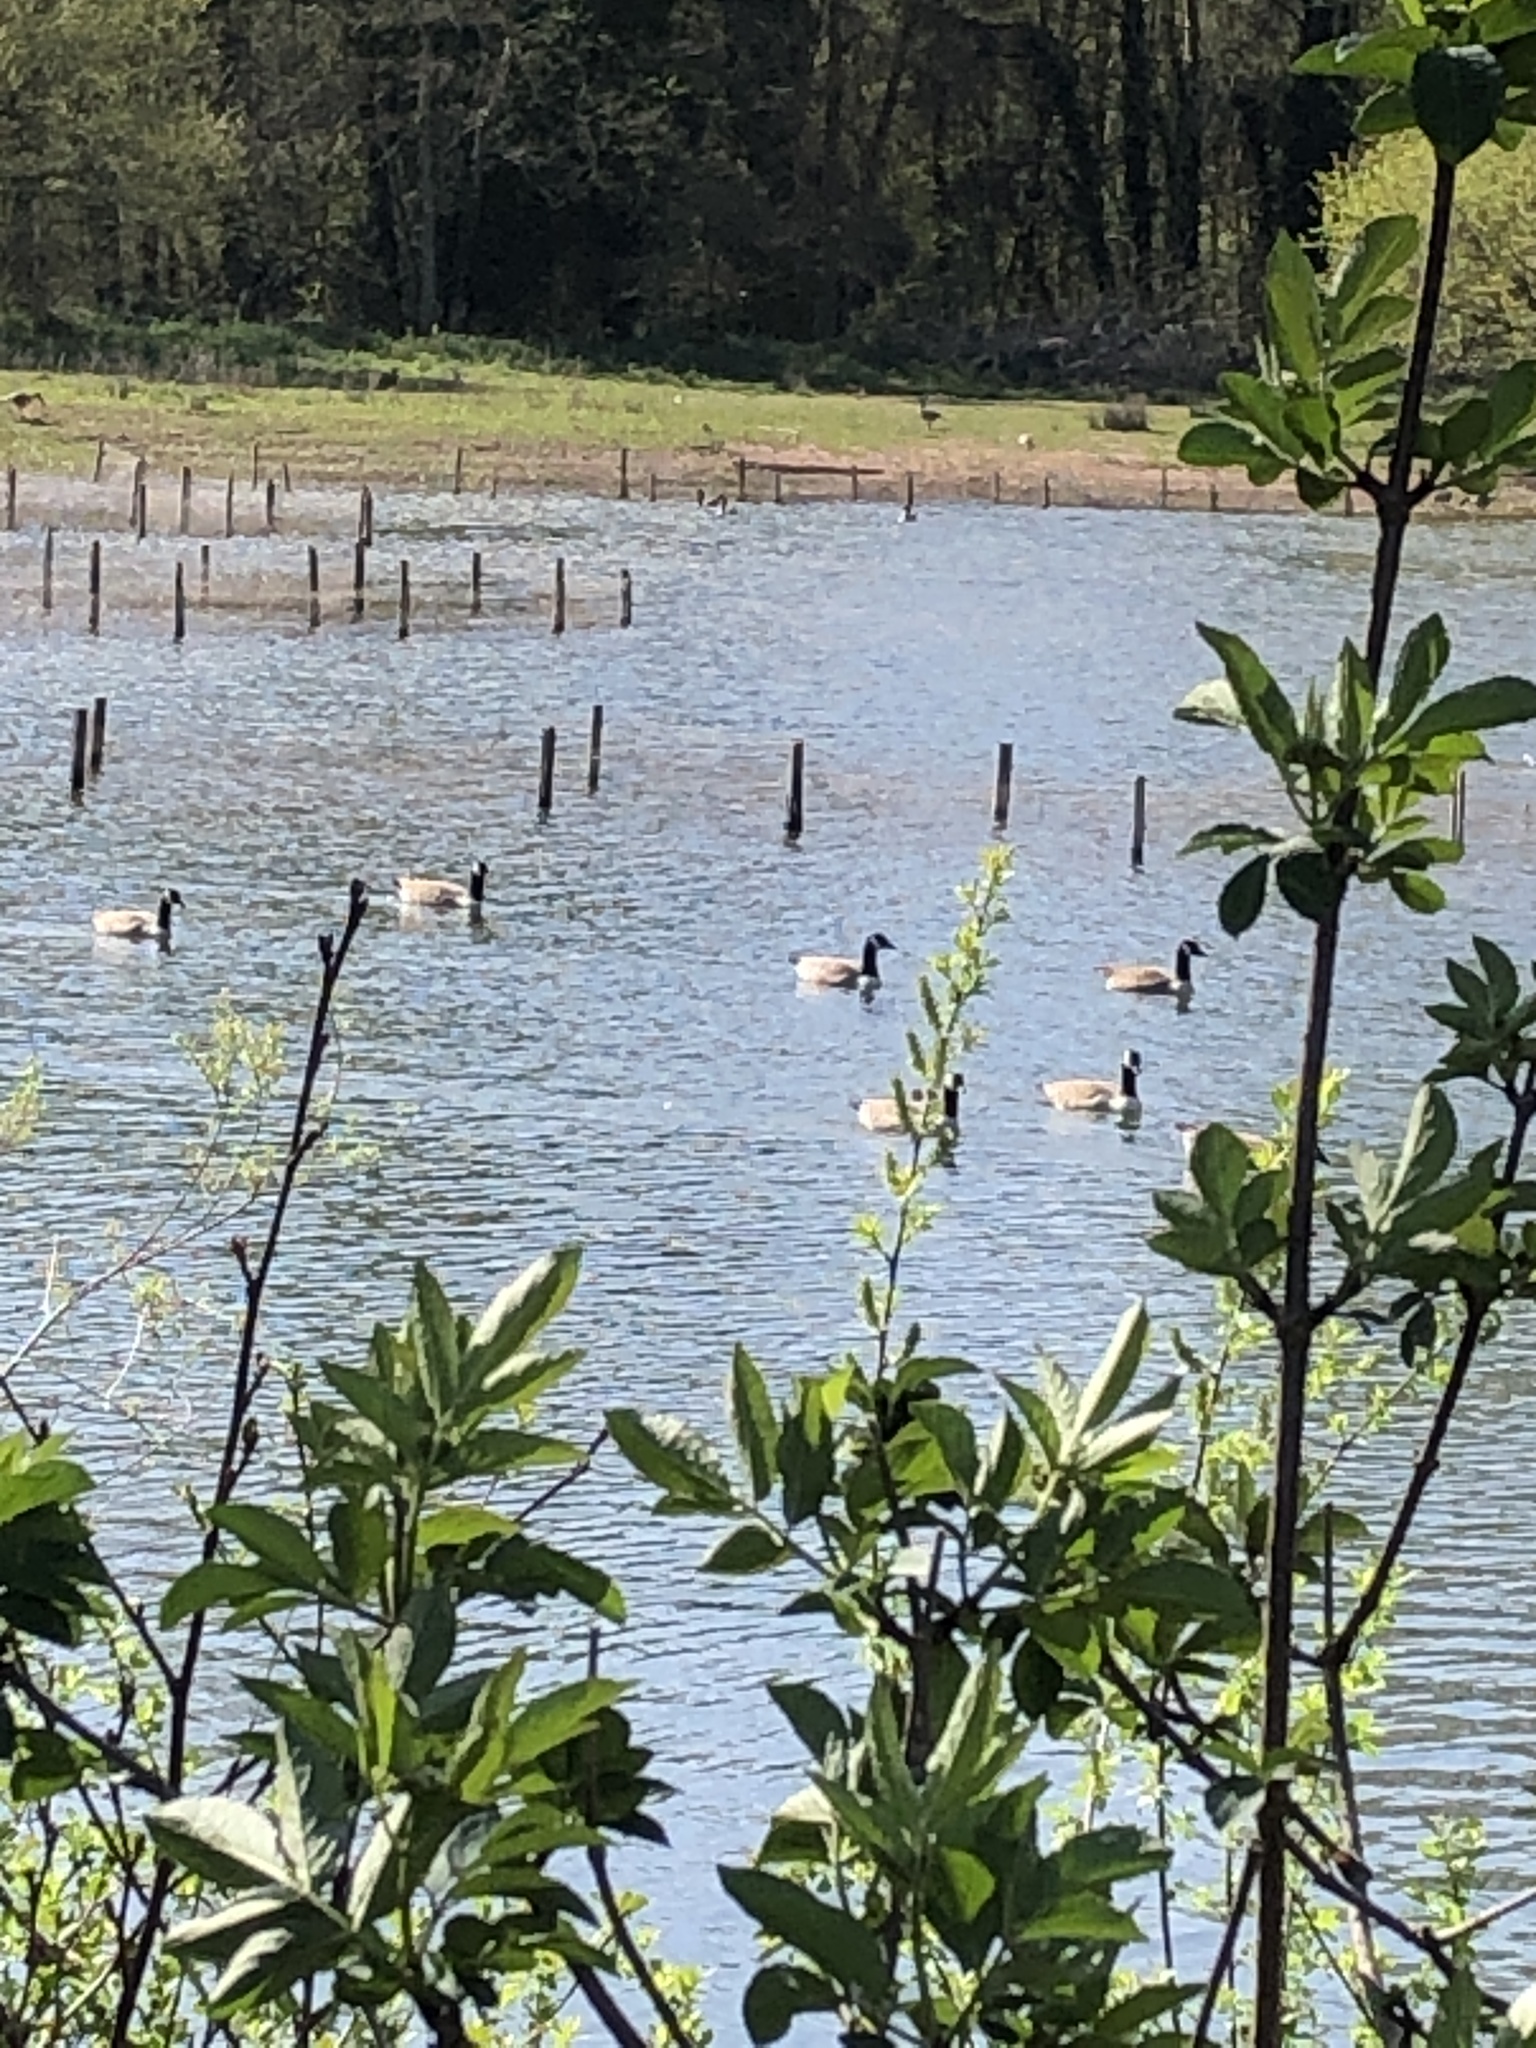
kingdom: Animalia
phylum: Chordata
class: Aves
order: Anseriformes
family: Anatidae
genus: Branta
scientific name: Branta canadensis
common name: Canada goose
